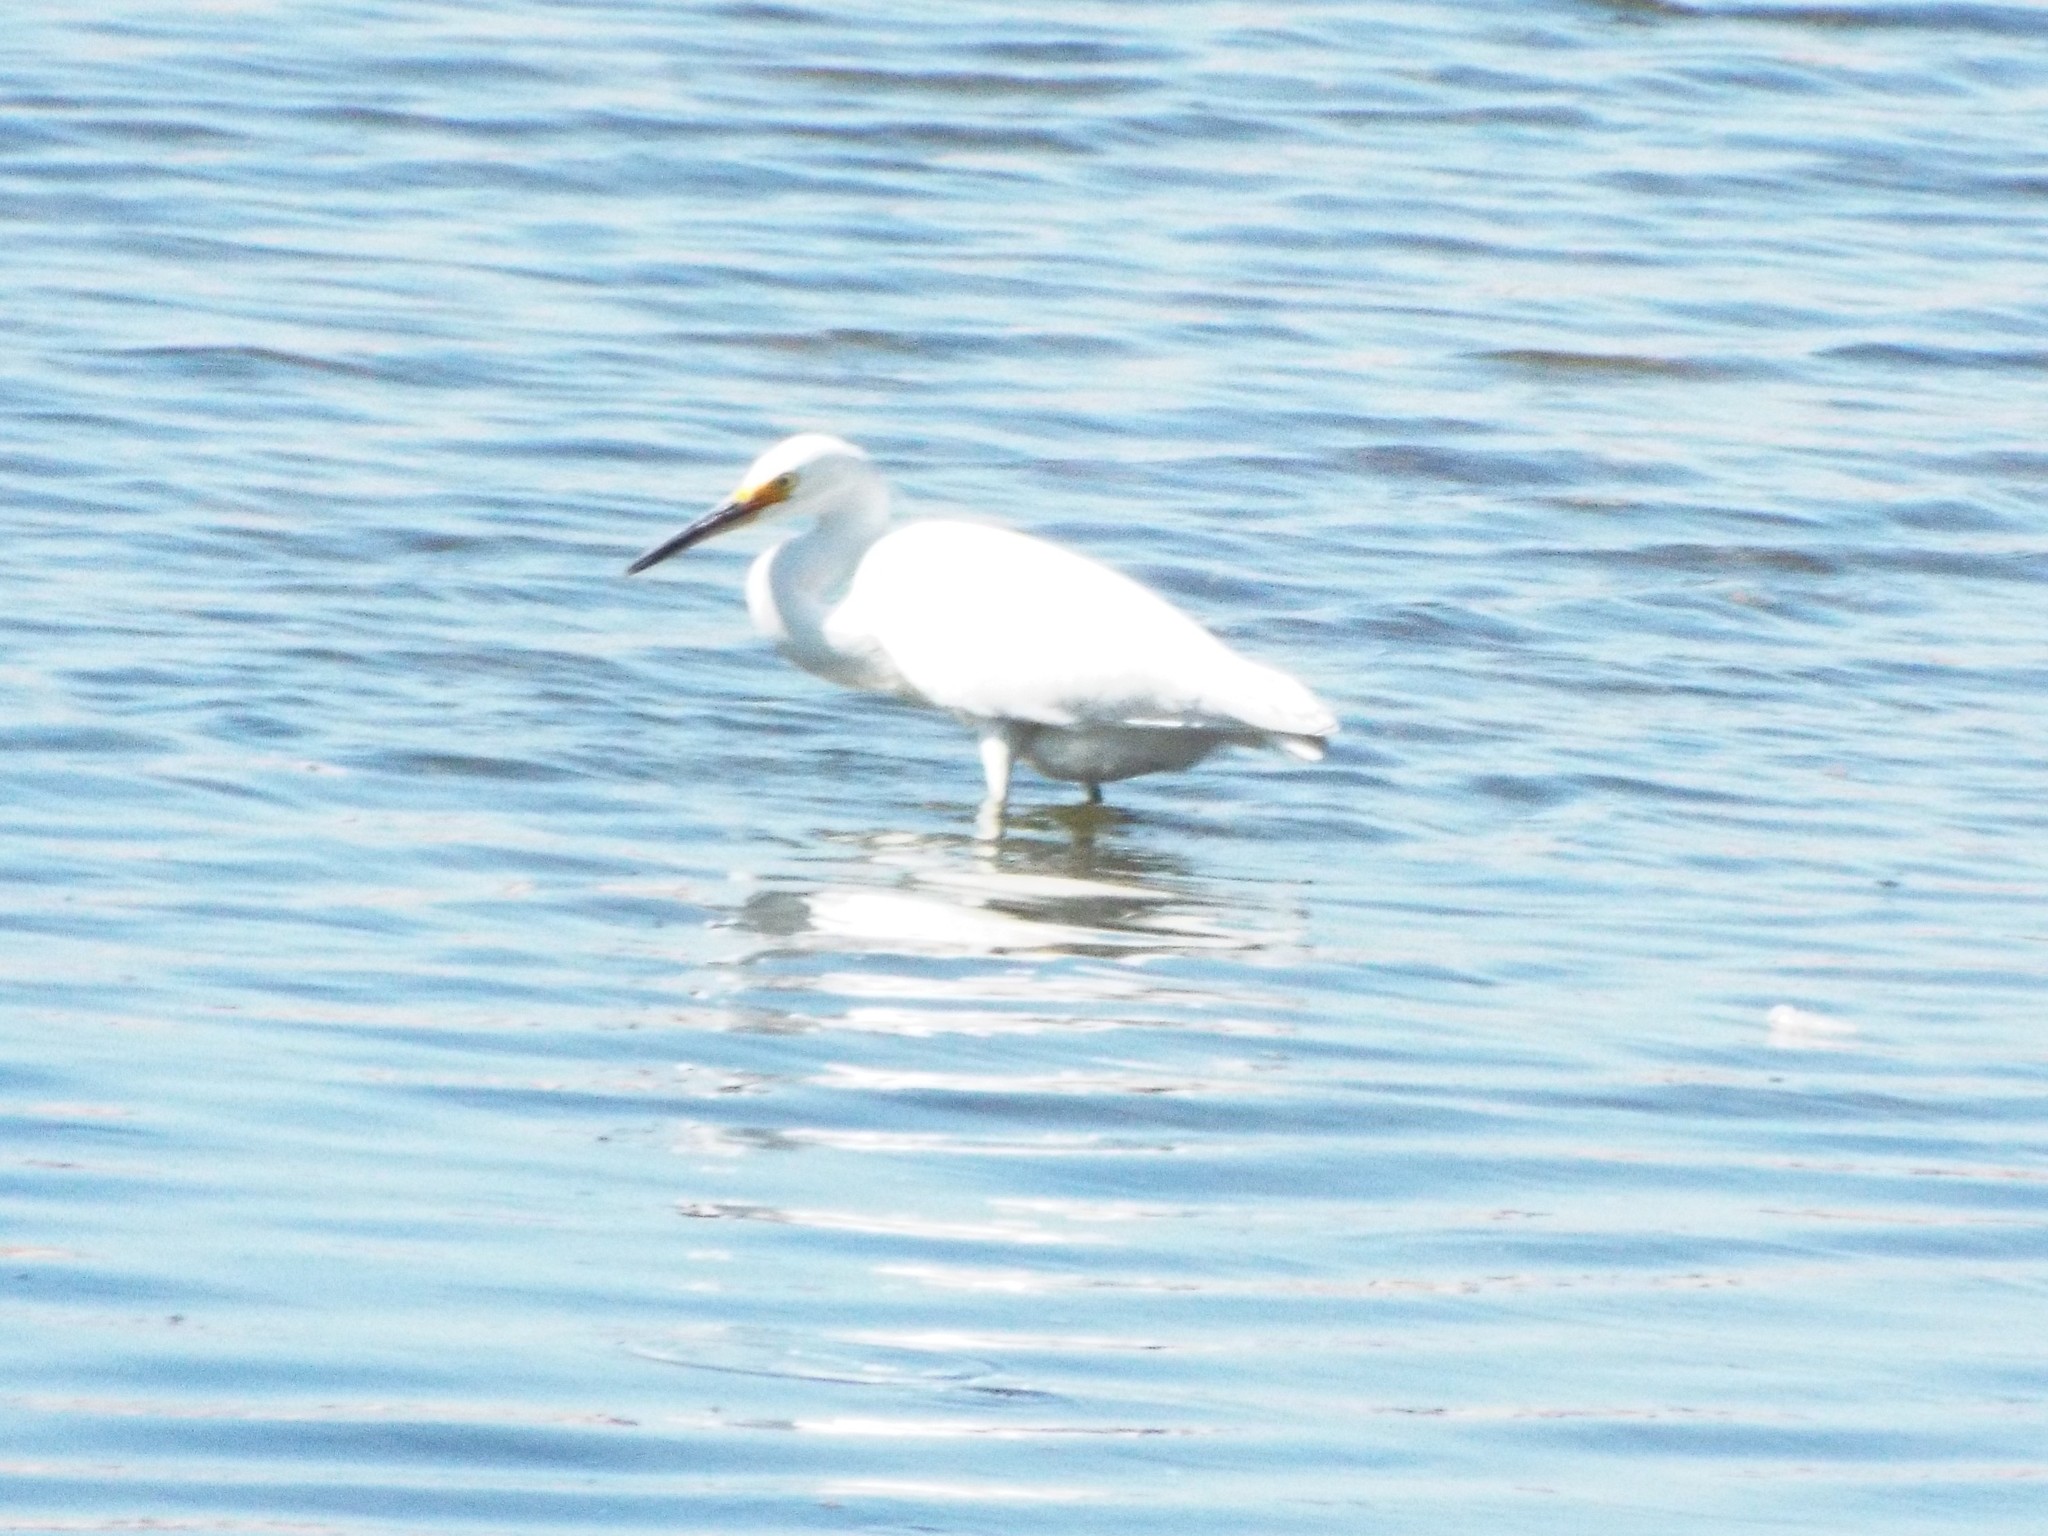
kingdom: Animalia
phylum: Chordata
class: Aves
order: Pelecaniformes
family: Ardeidae
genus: Egretta
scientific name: Egretta thula
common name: Snowy egret
